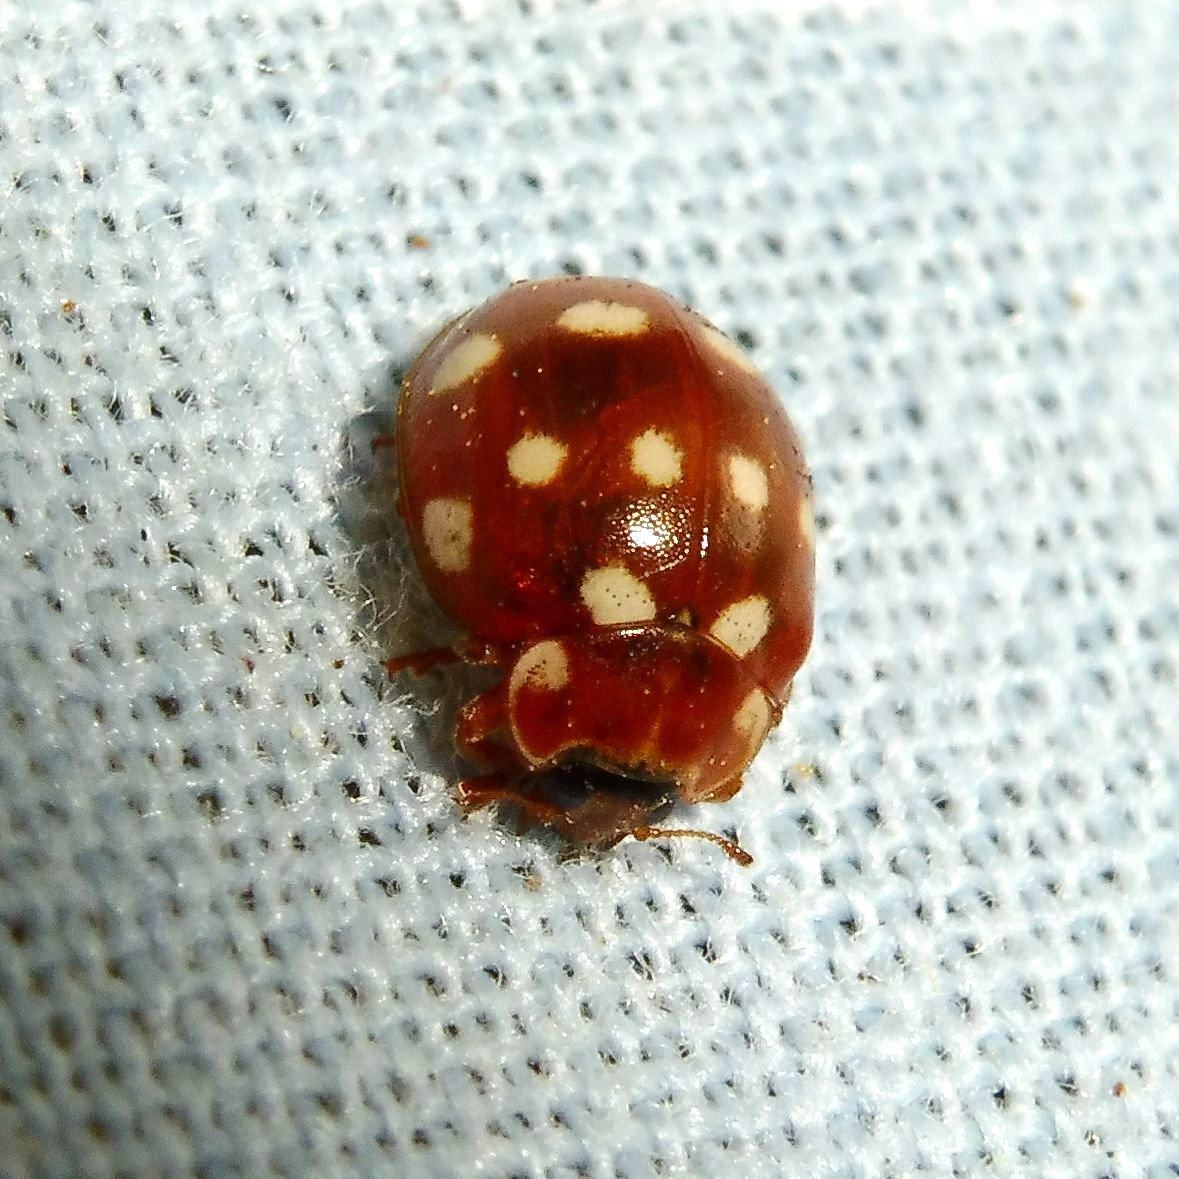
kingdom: Animalia
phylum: Arthropoda
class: Insecta
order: Coleoptera
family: Coccinellidae
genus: Calvia
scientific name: Calvia quatuordecimguttata
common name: Cream-spot ladybird
